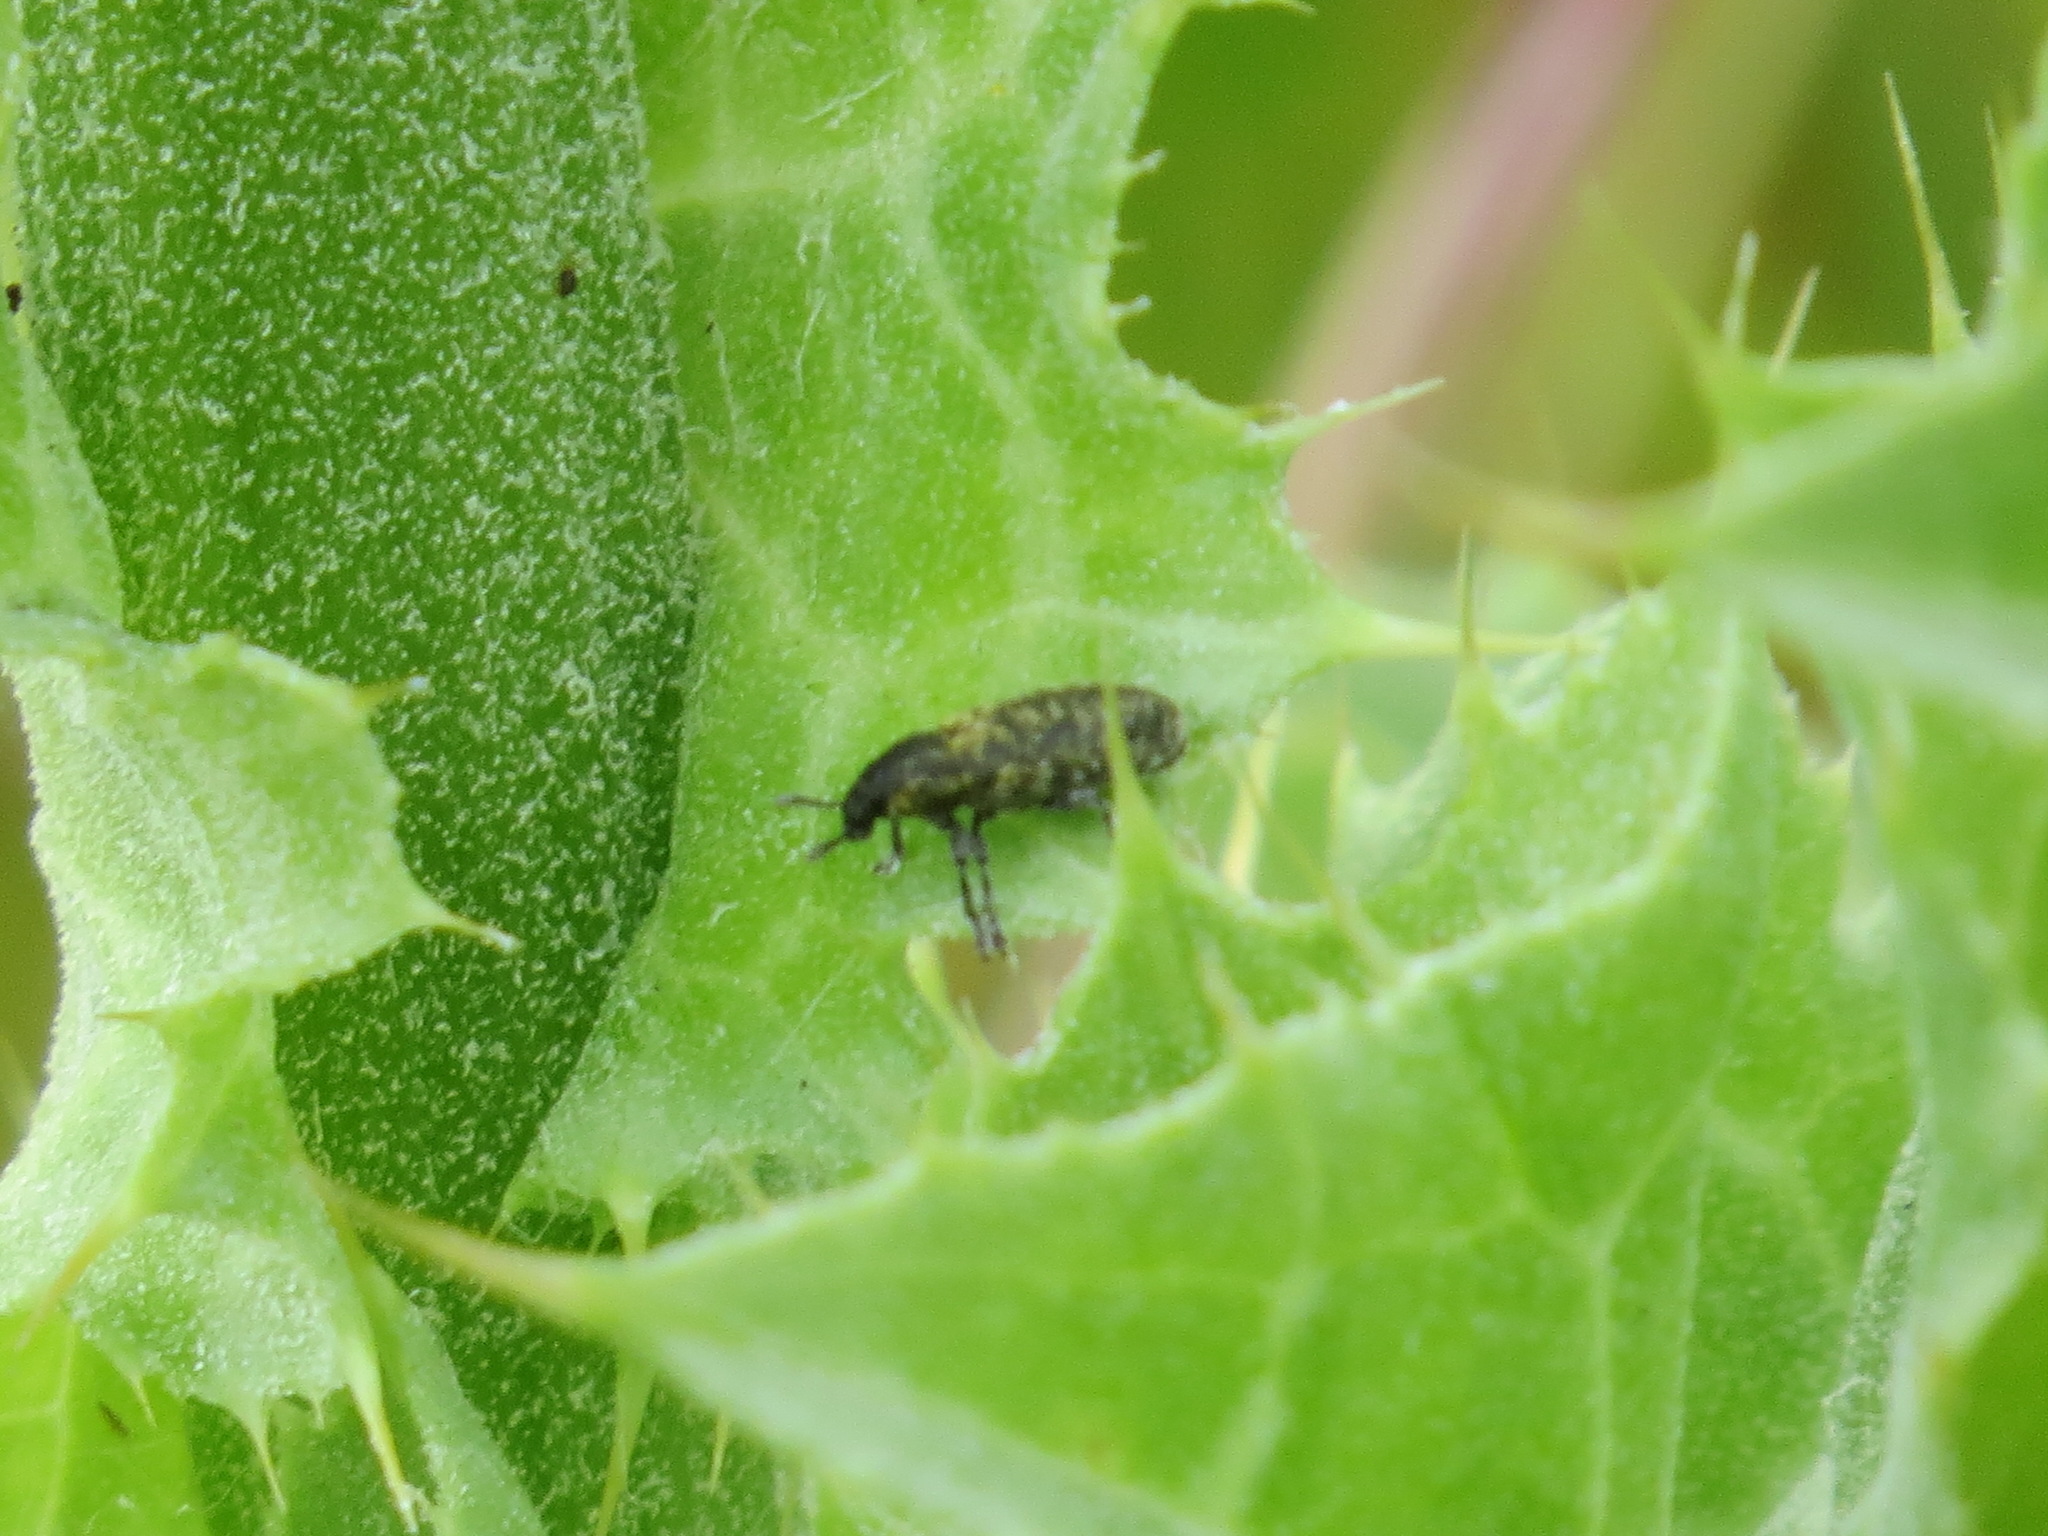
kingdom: Animalia
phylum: Arthropoda
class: Insecta
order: Coleoptera
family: Curculionidae
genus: Rhinocyllus
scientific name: Rhinocyllus conicus
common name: Weevil
